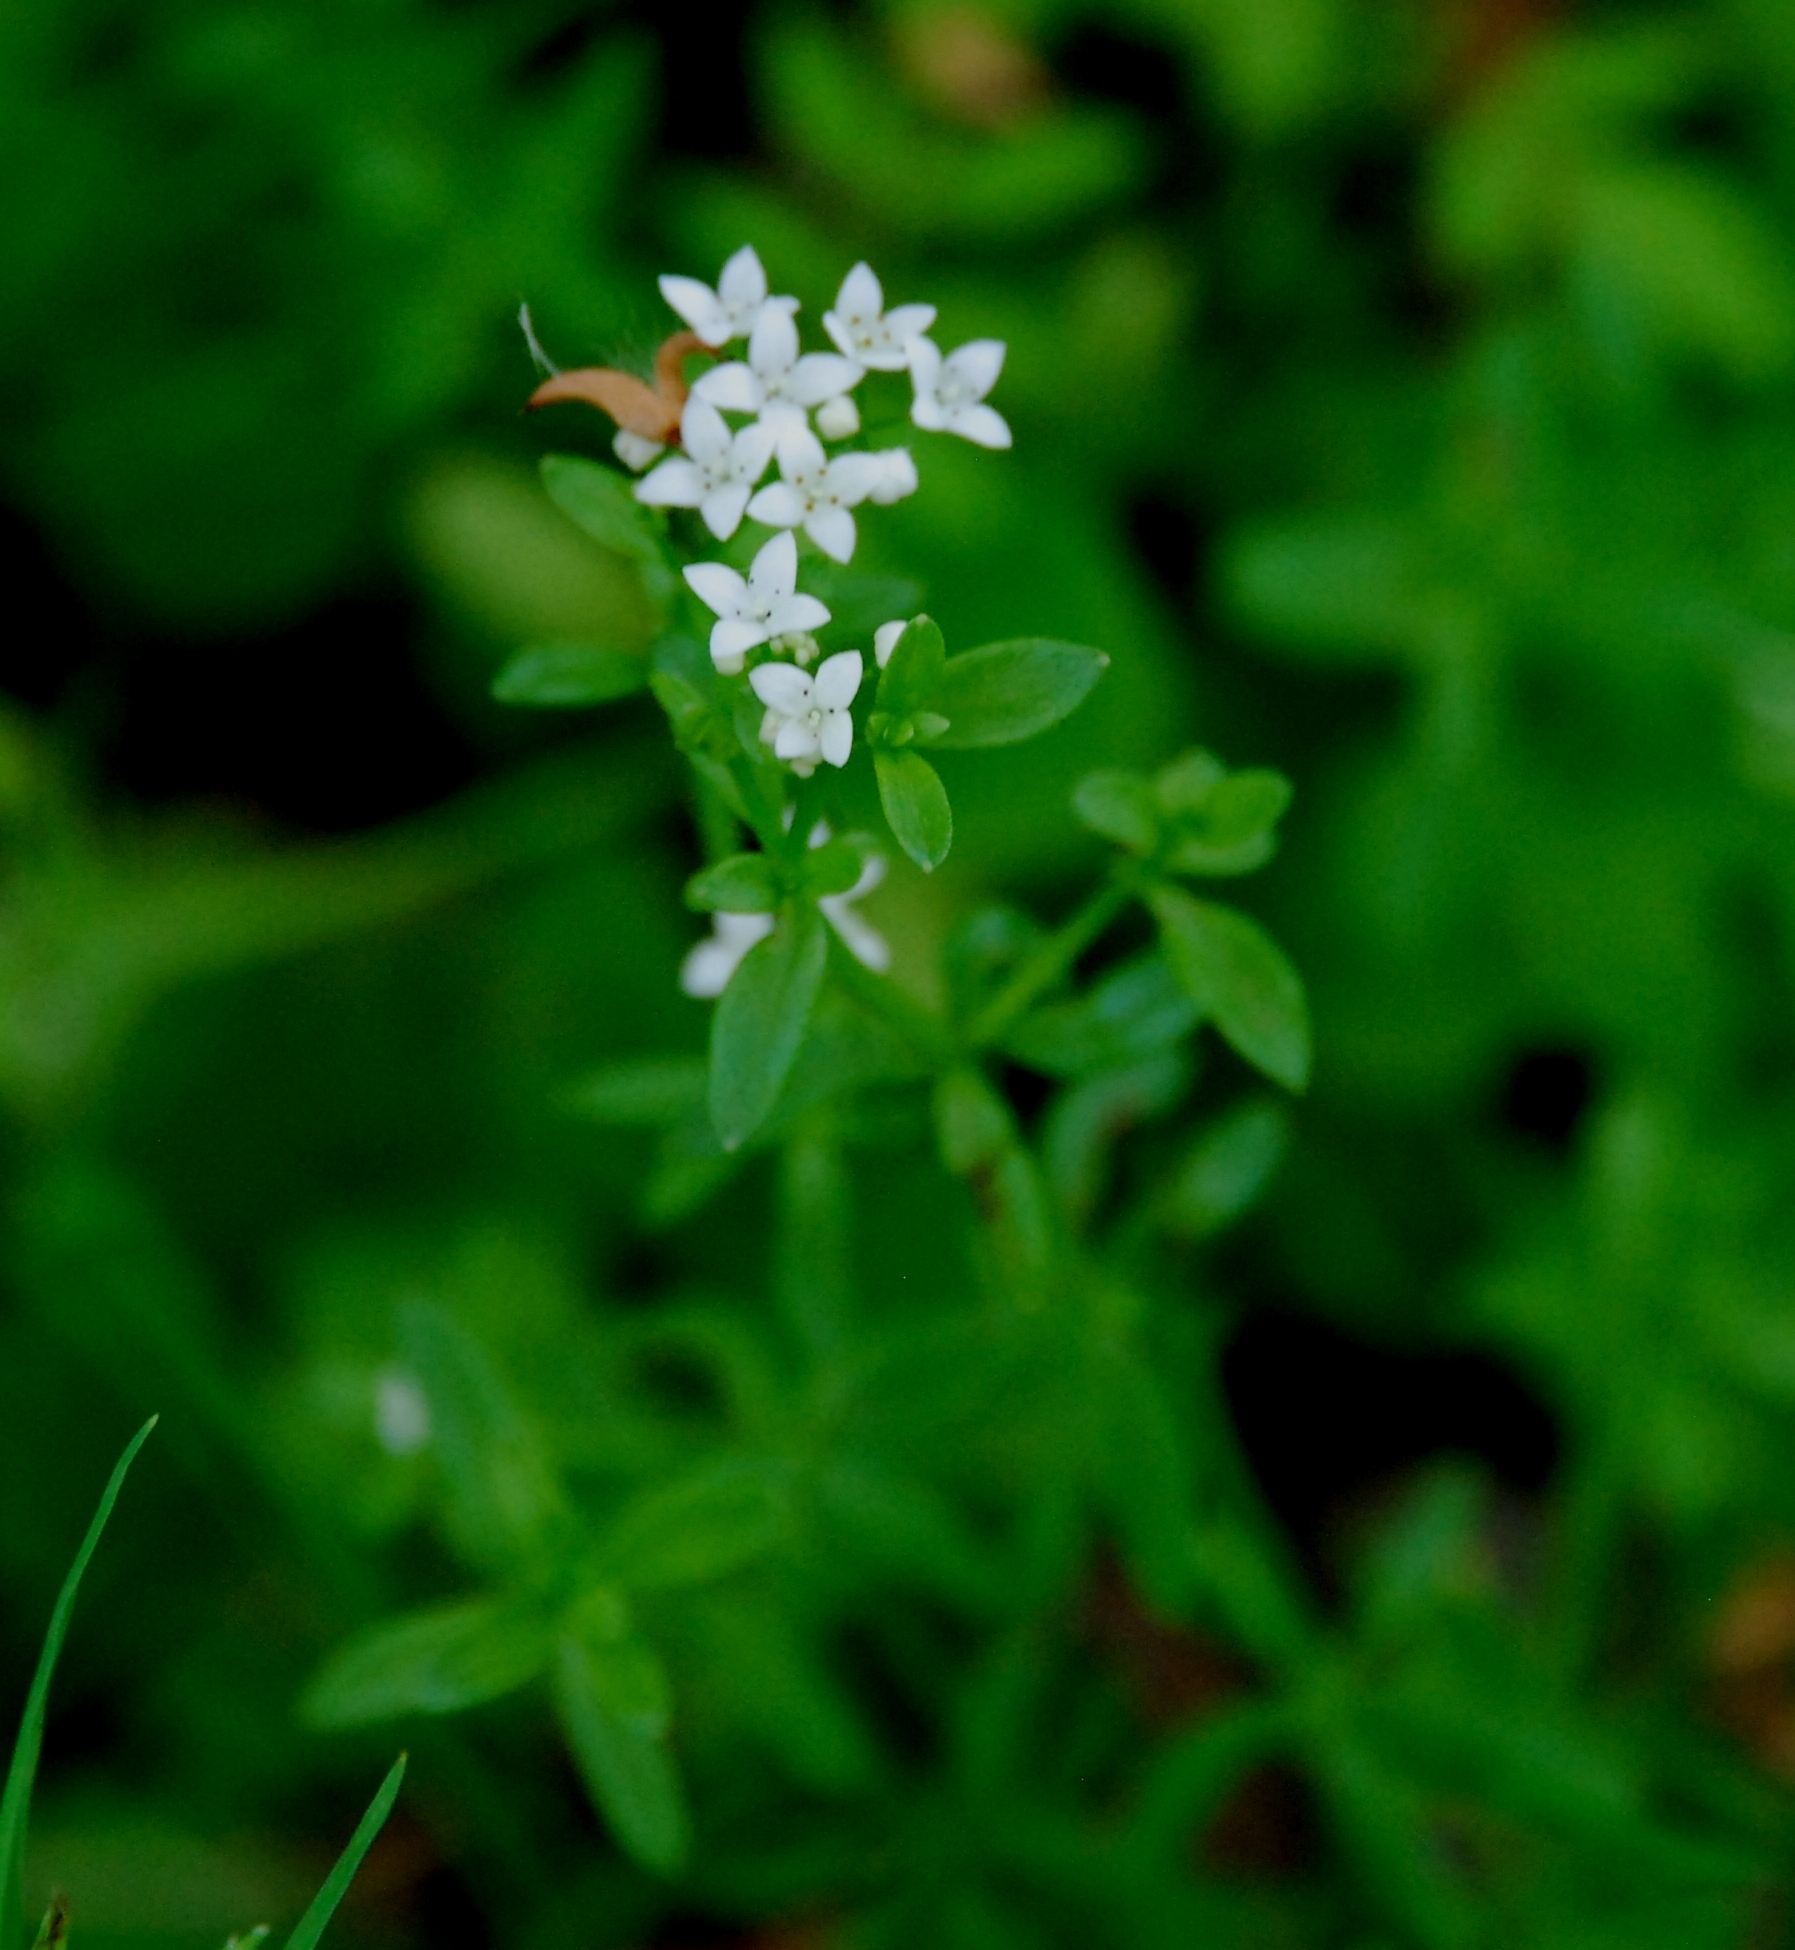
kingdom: Plantae
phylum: Tracheophyta
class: Magnoliopsida
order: Gentianales
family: Rubiaceae
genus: Galium
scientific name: Galium palustre
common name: Common marsh-bedstraw
